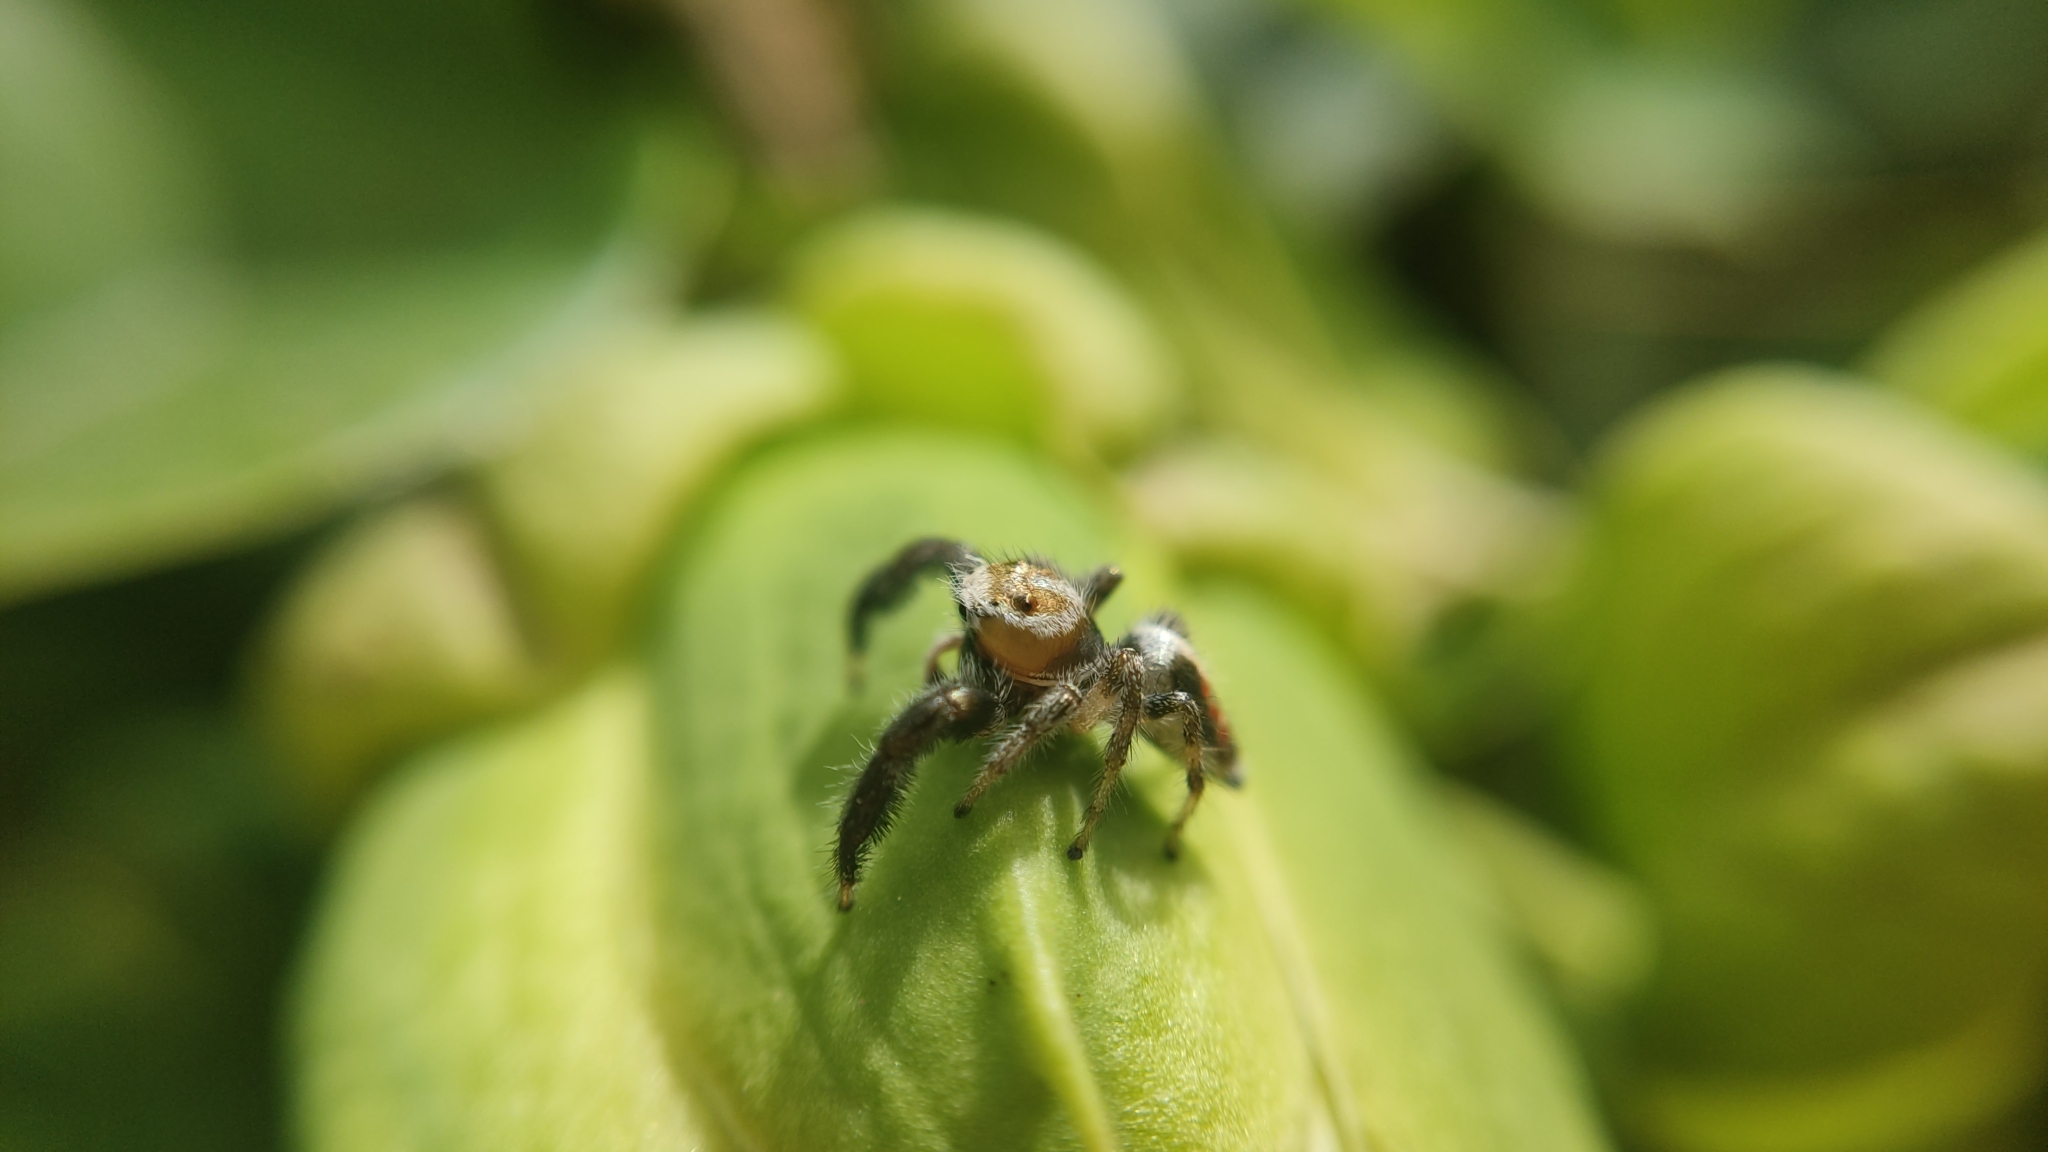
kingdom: Animalia
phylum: Arthropoda
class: Arachnida
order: Araneae
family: Salticidae
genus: Thyene
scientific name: Thyene imperialis
